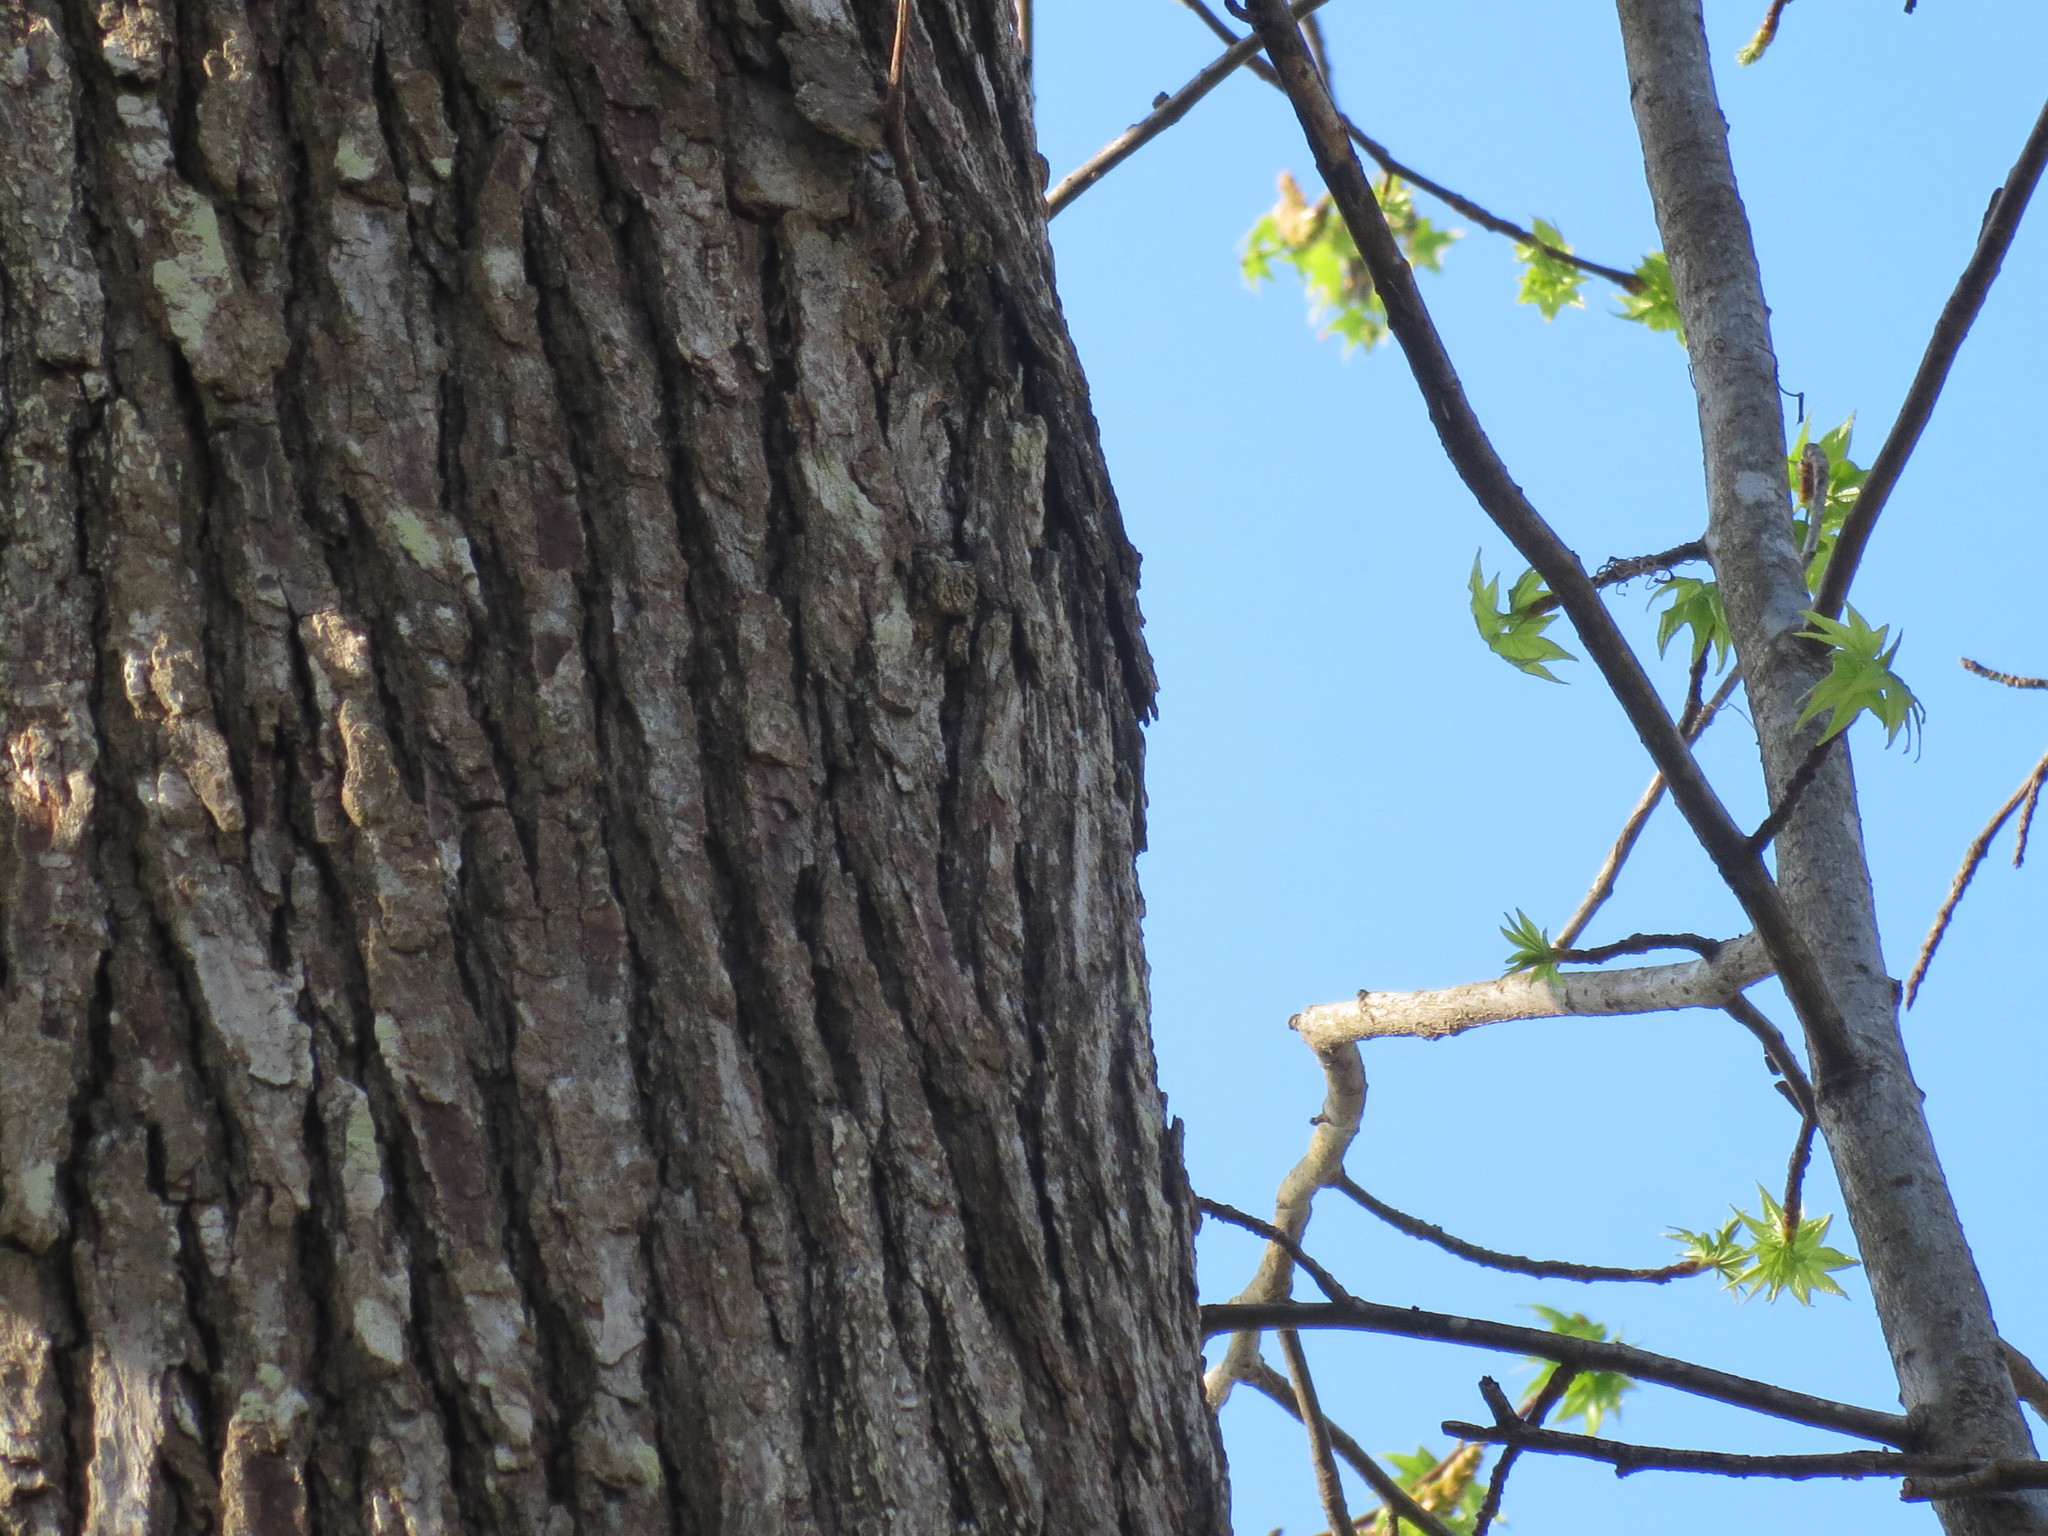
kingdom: Plantae
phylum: Tracheophyta
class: Magnoliopsida
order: Saxifragales
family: Altingiaceae
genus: Liquidambar
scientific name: Liquidambar styraciflua
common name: Sweet gum
